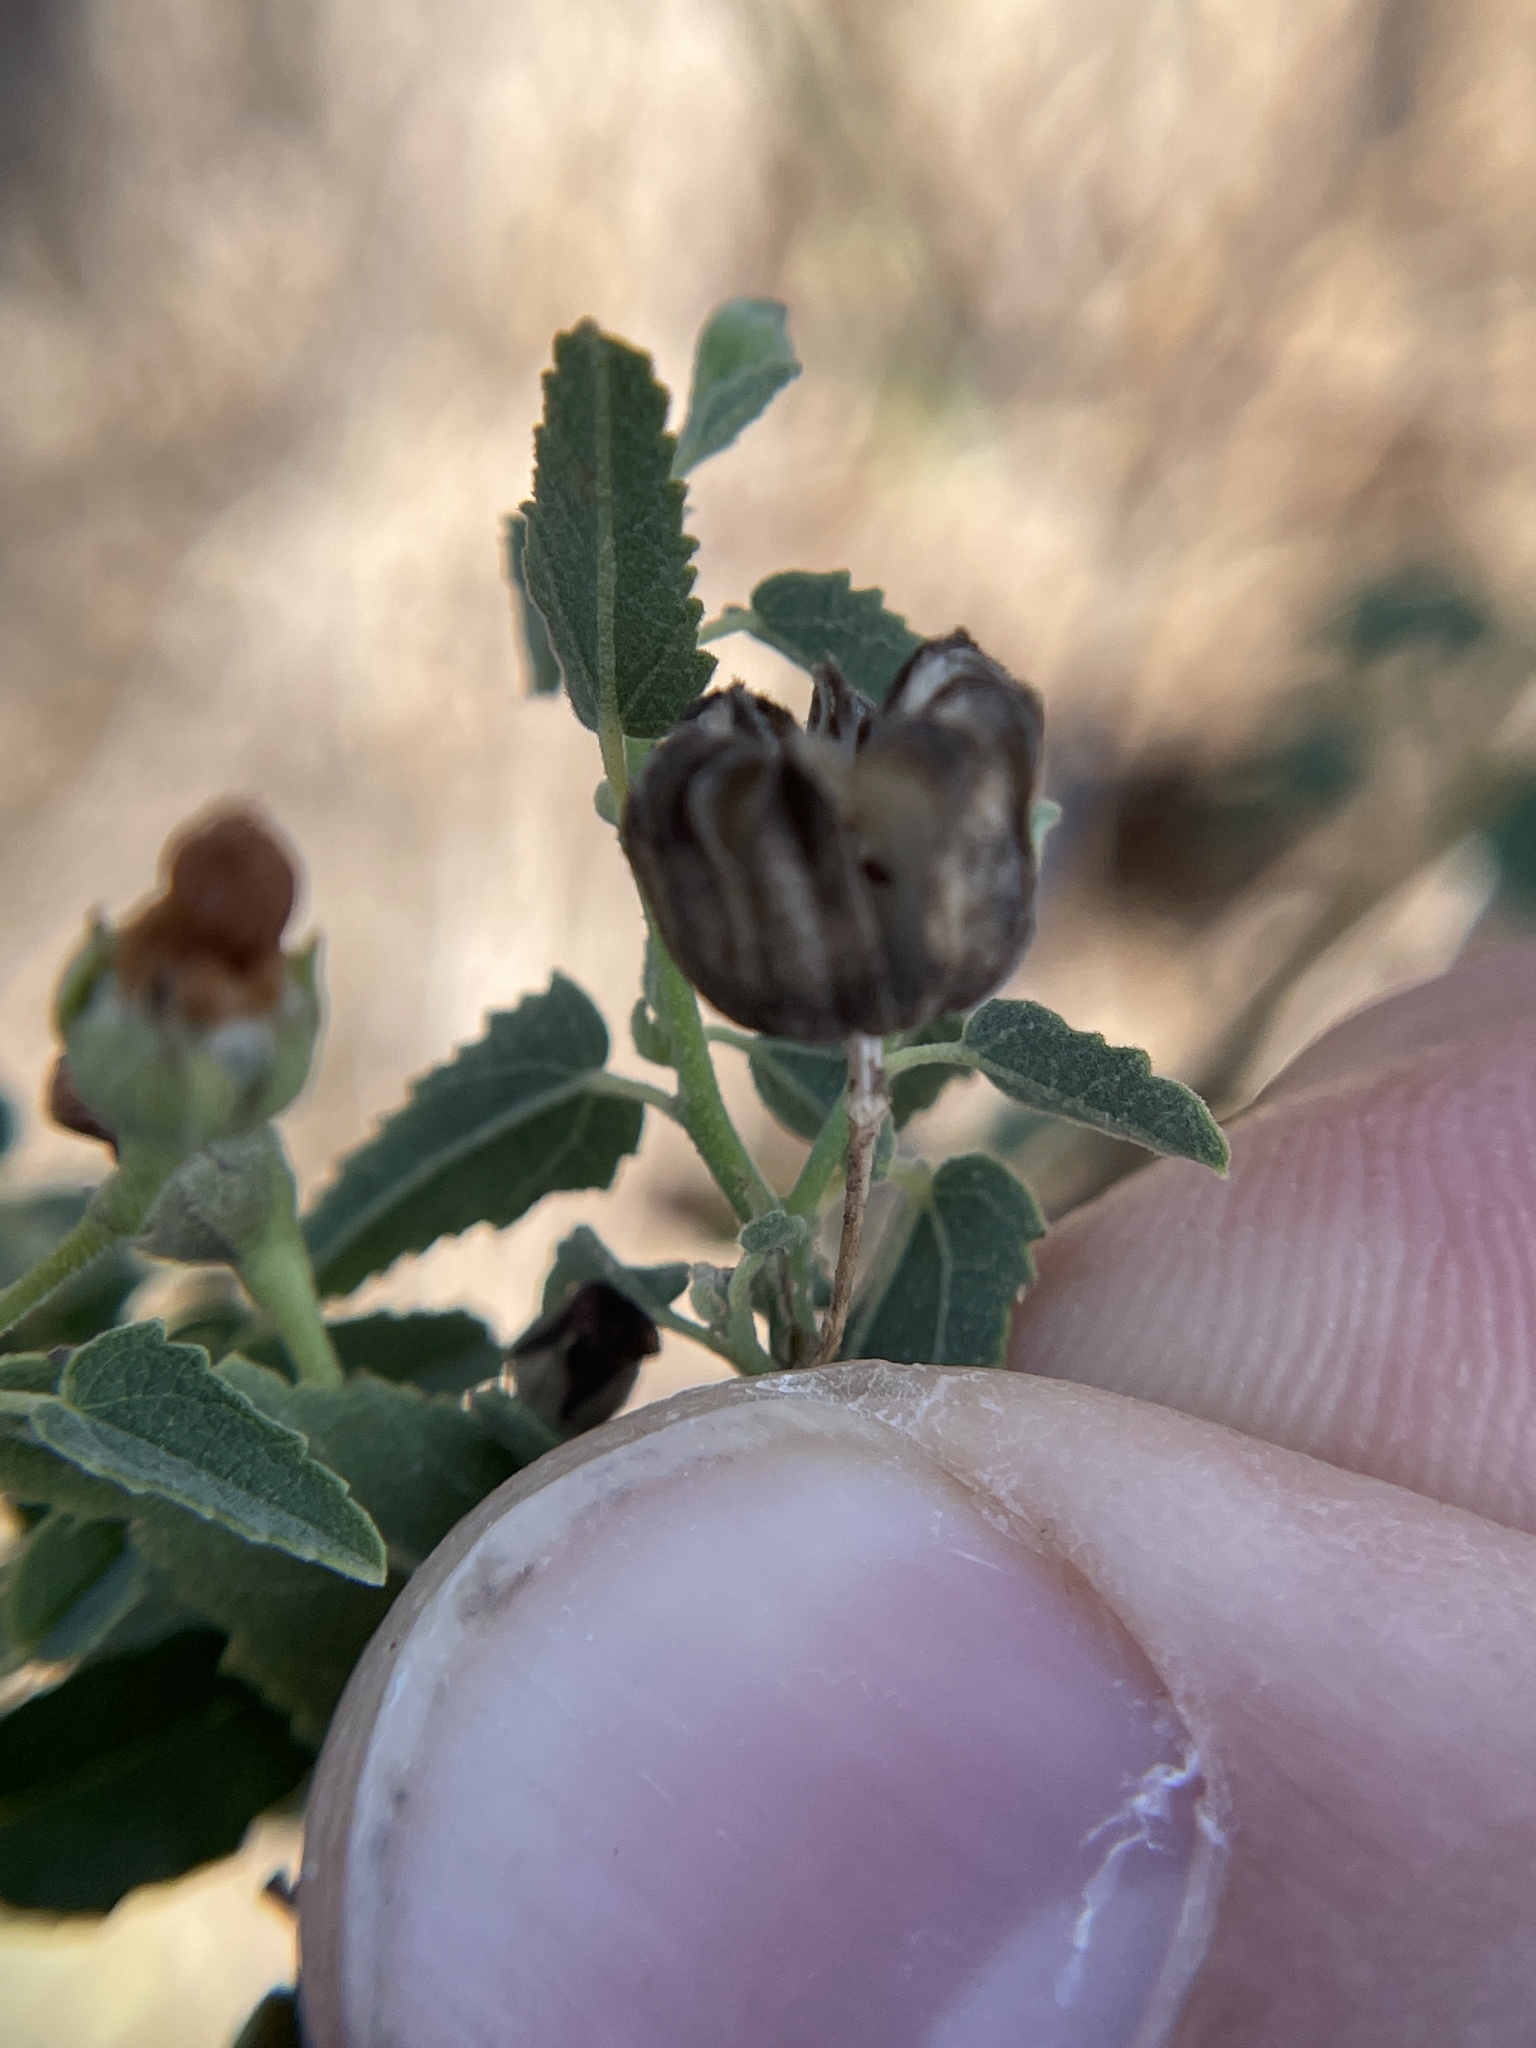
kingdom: Plantae
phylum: Tracheophyta
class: Magnoliopsida
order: Malvales
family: Malvaceae
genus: Abutilon
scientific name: Abutilon fruticosum
